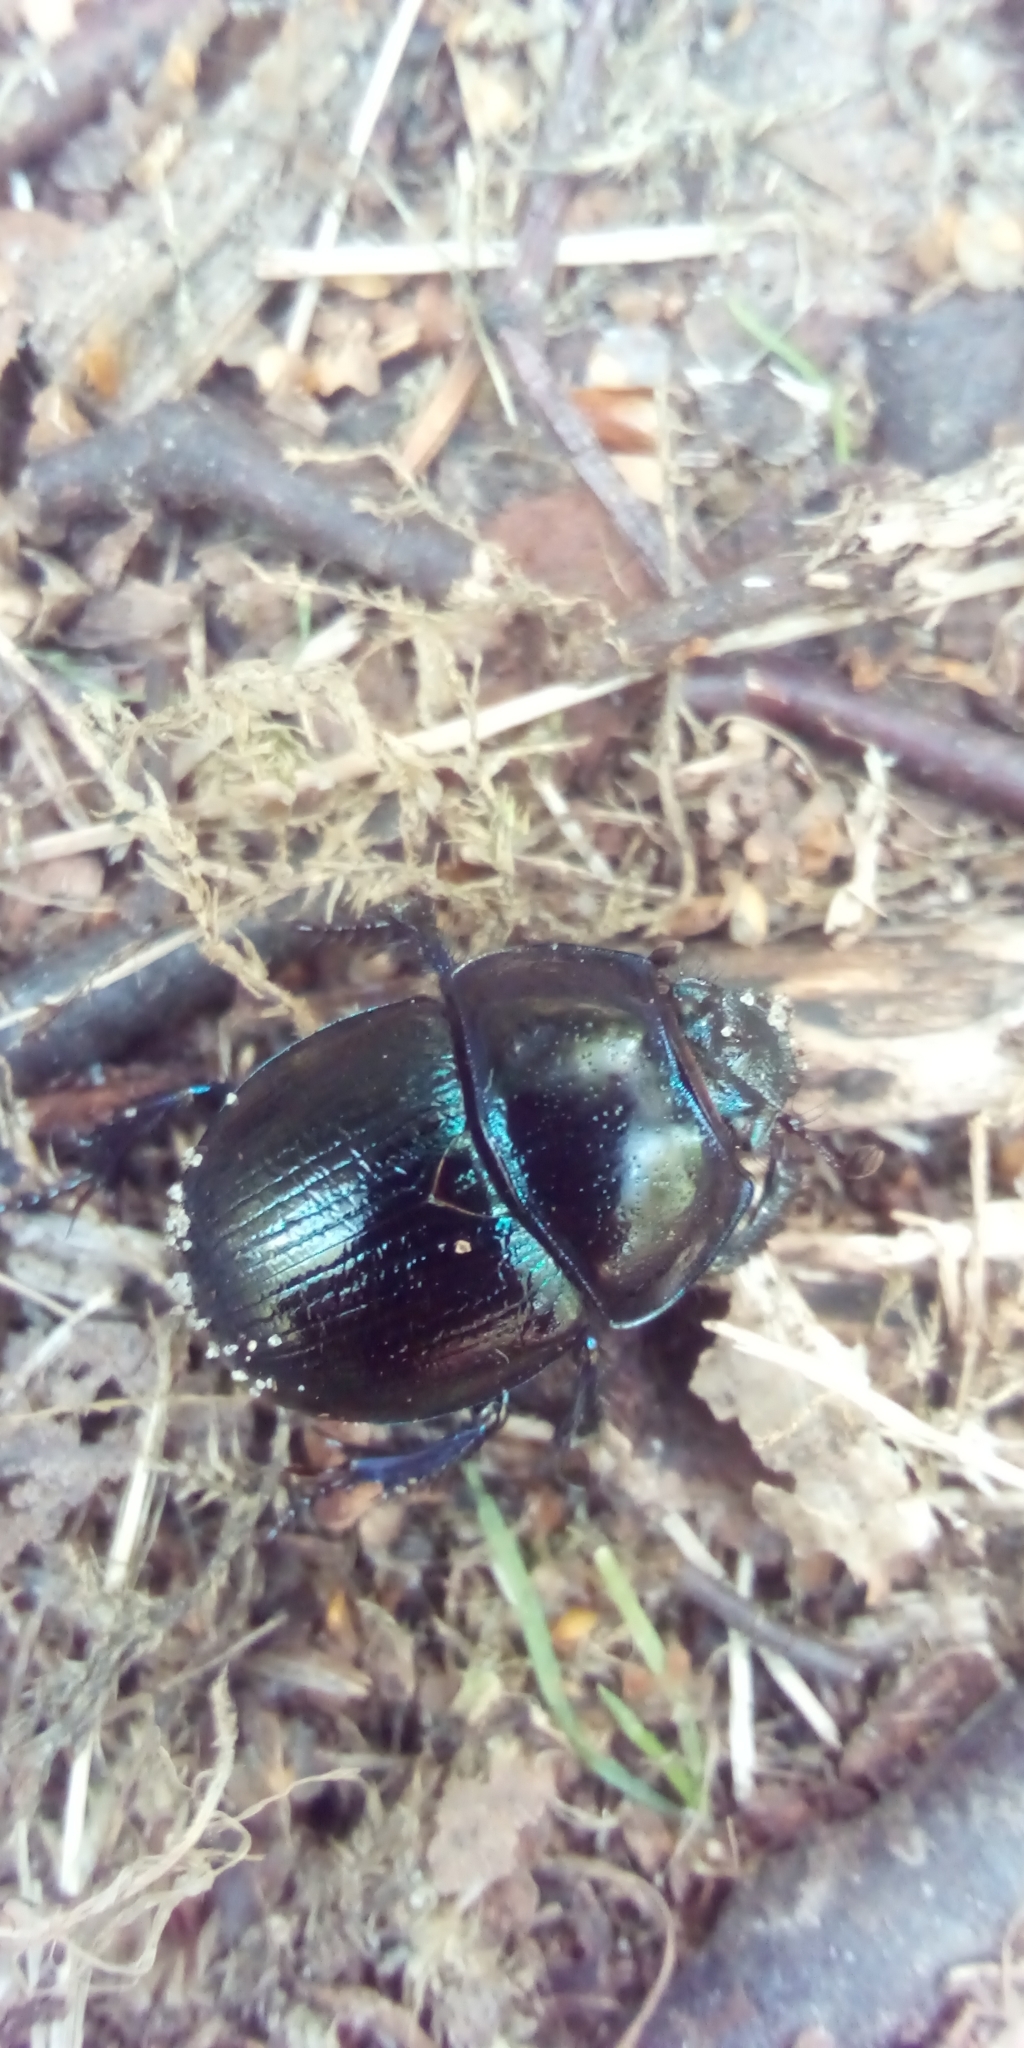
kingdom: Animalia
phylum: Arthropoda
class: Insecta
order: Coleoptera
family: Geotrupidae
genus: Anoplotrupes
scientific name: Anoplotrupes stercorosus
